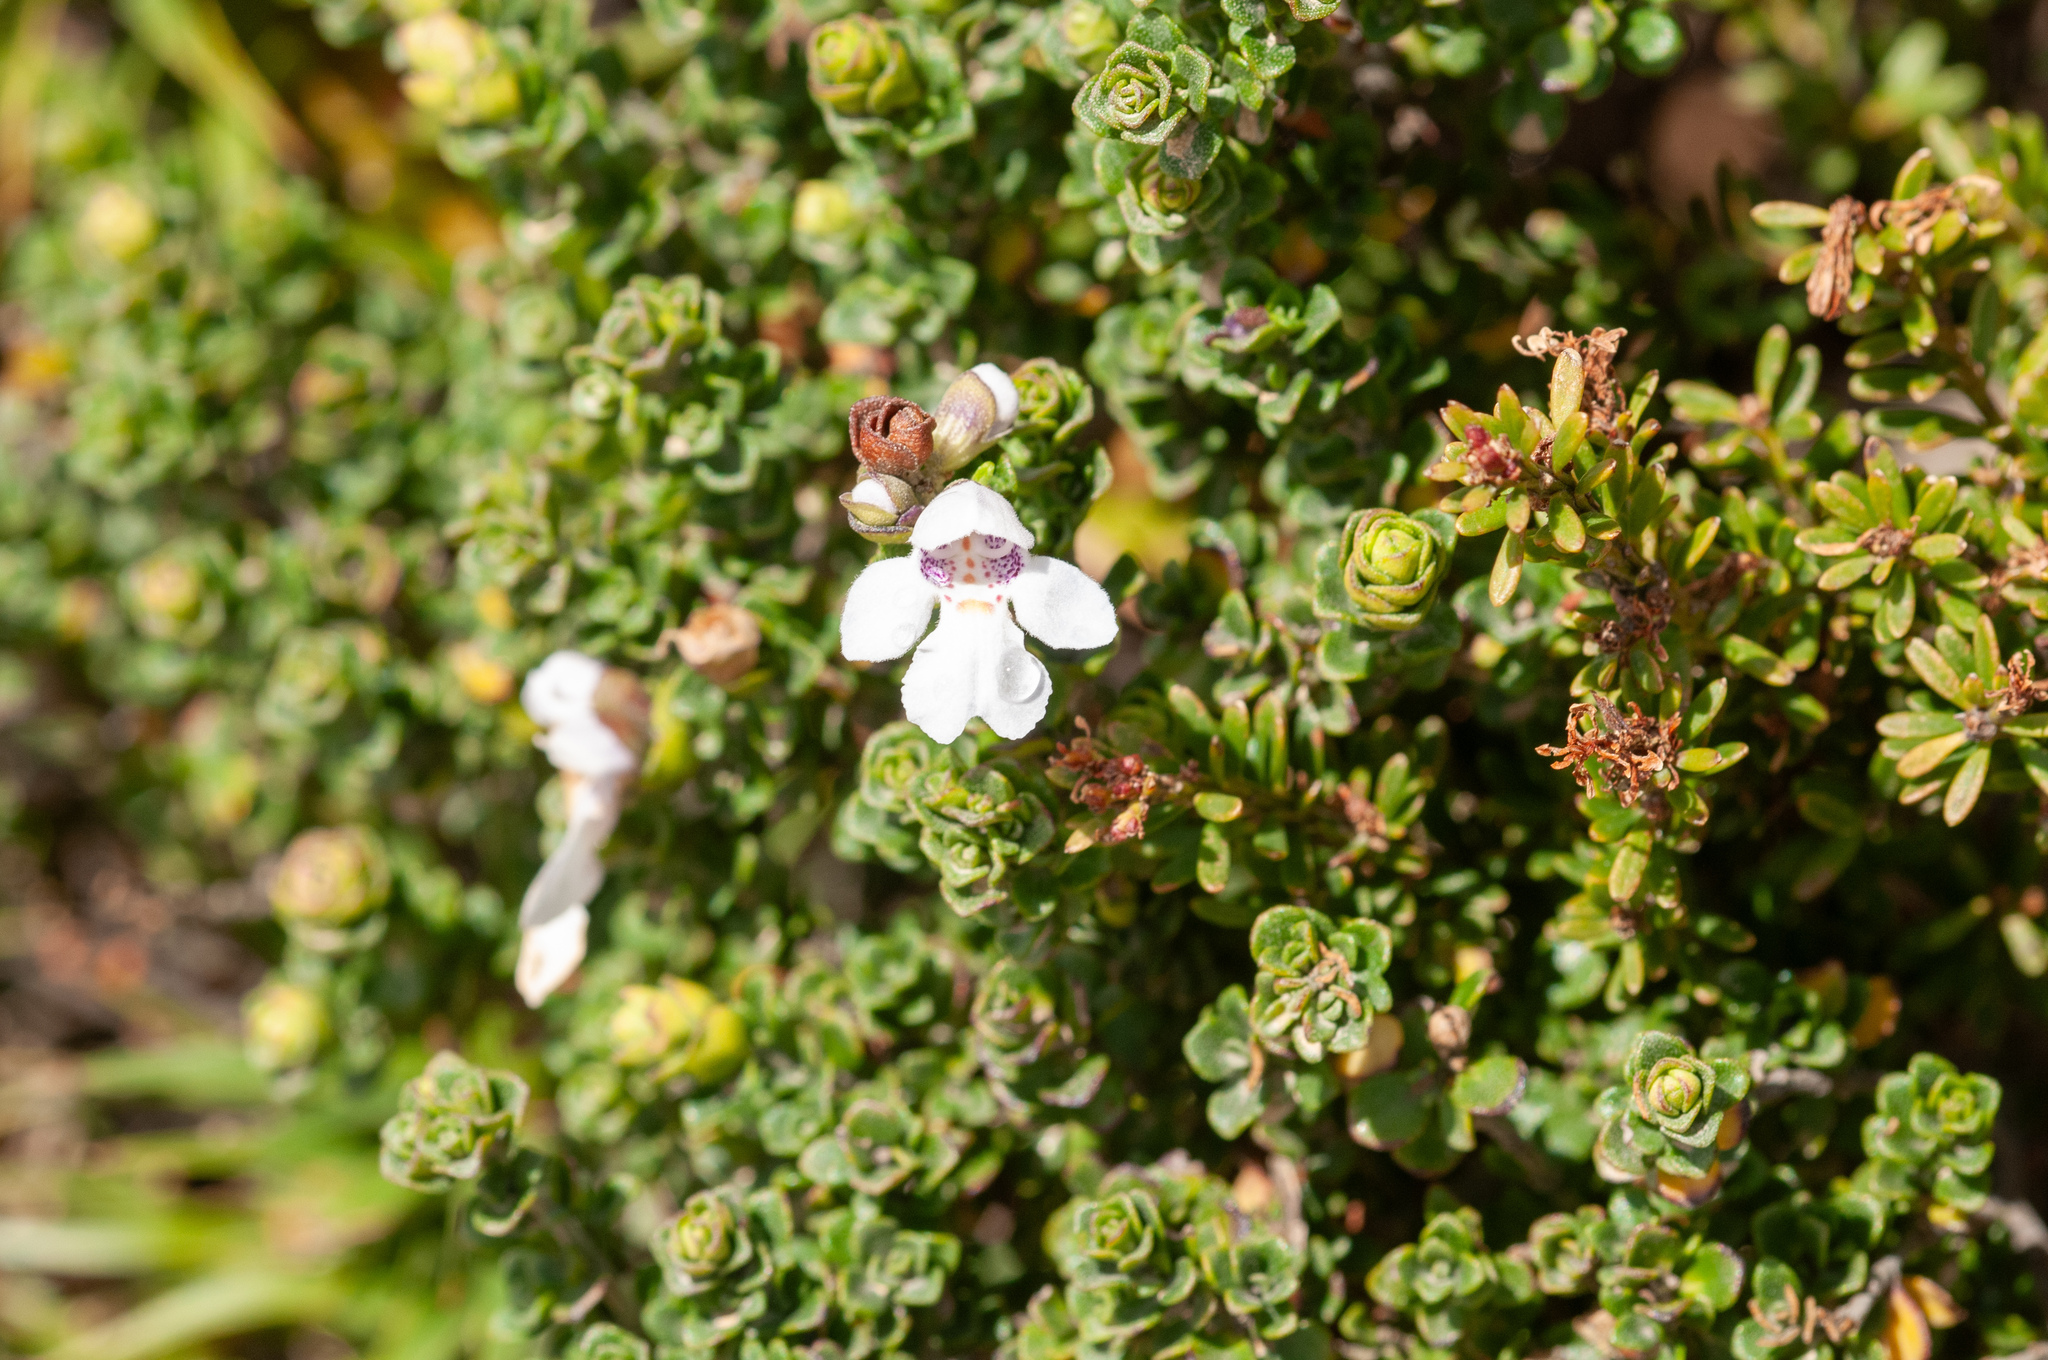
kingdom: Plantae
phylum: Tracheophyta
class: Magnoliopsida
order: Lamiales
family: Lamiaceae
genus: Prostanthera
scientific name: Prostanthera cuneata
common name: Alpine mintbush
